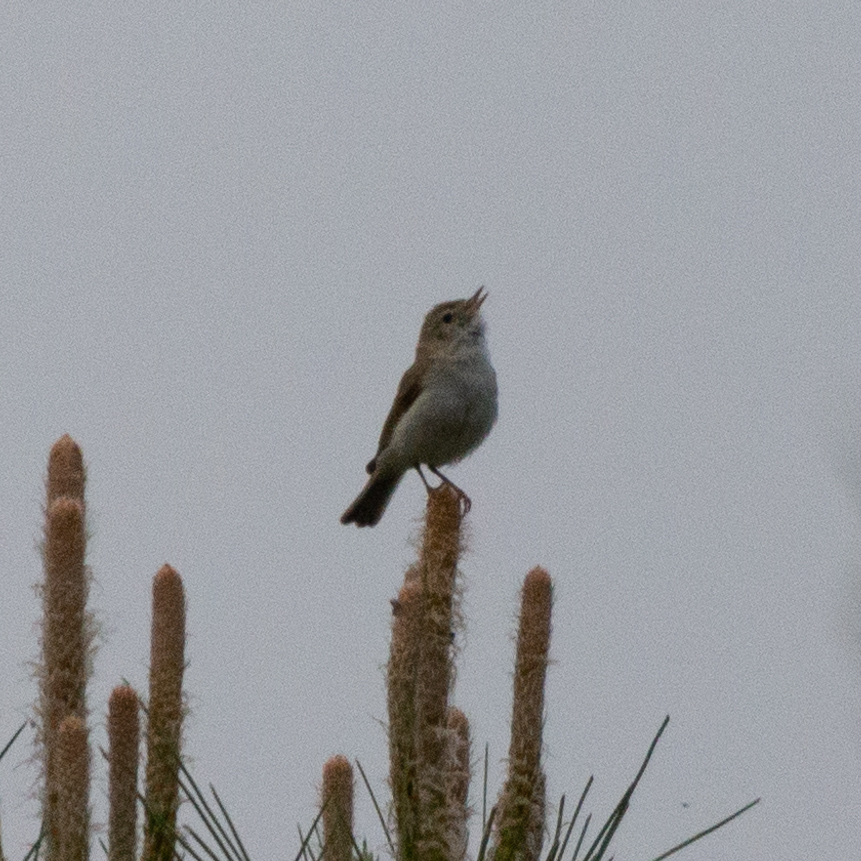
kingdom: Animalia
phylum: Chordata
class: Aves
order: Passeriformes
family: Phylloscopidae
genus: Phylloscopus
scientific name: Phylloscopus bonelli
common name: Western bonelli's warbler
